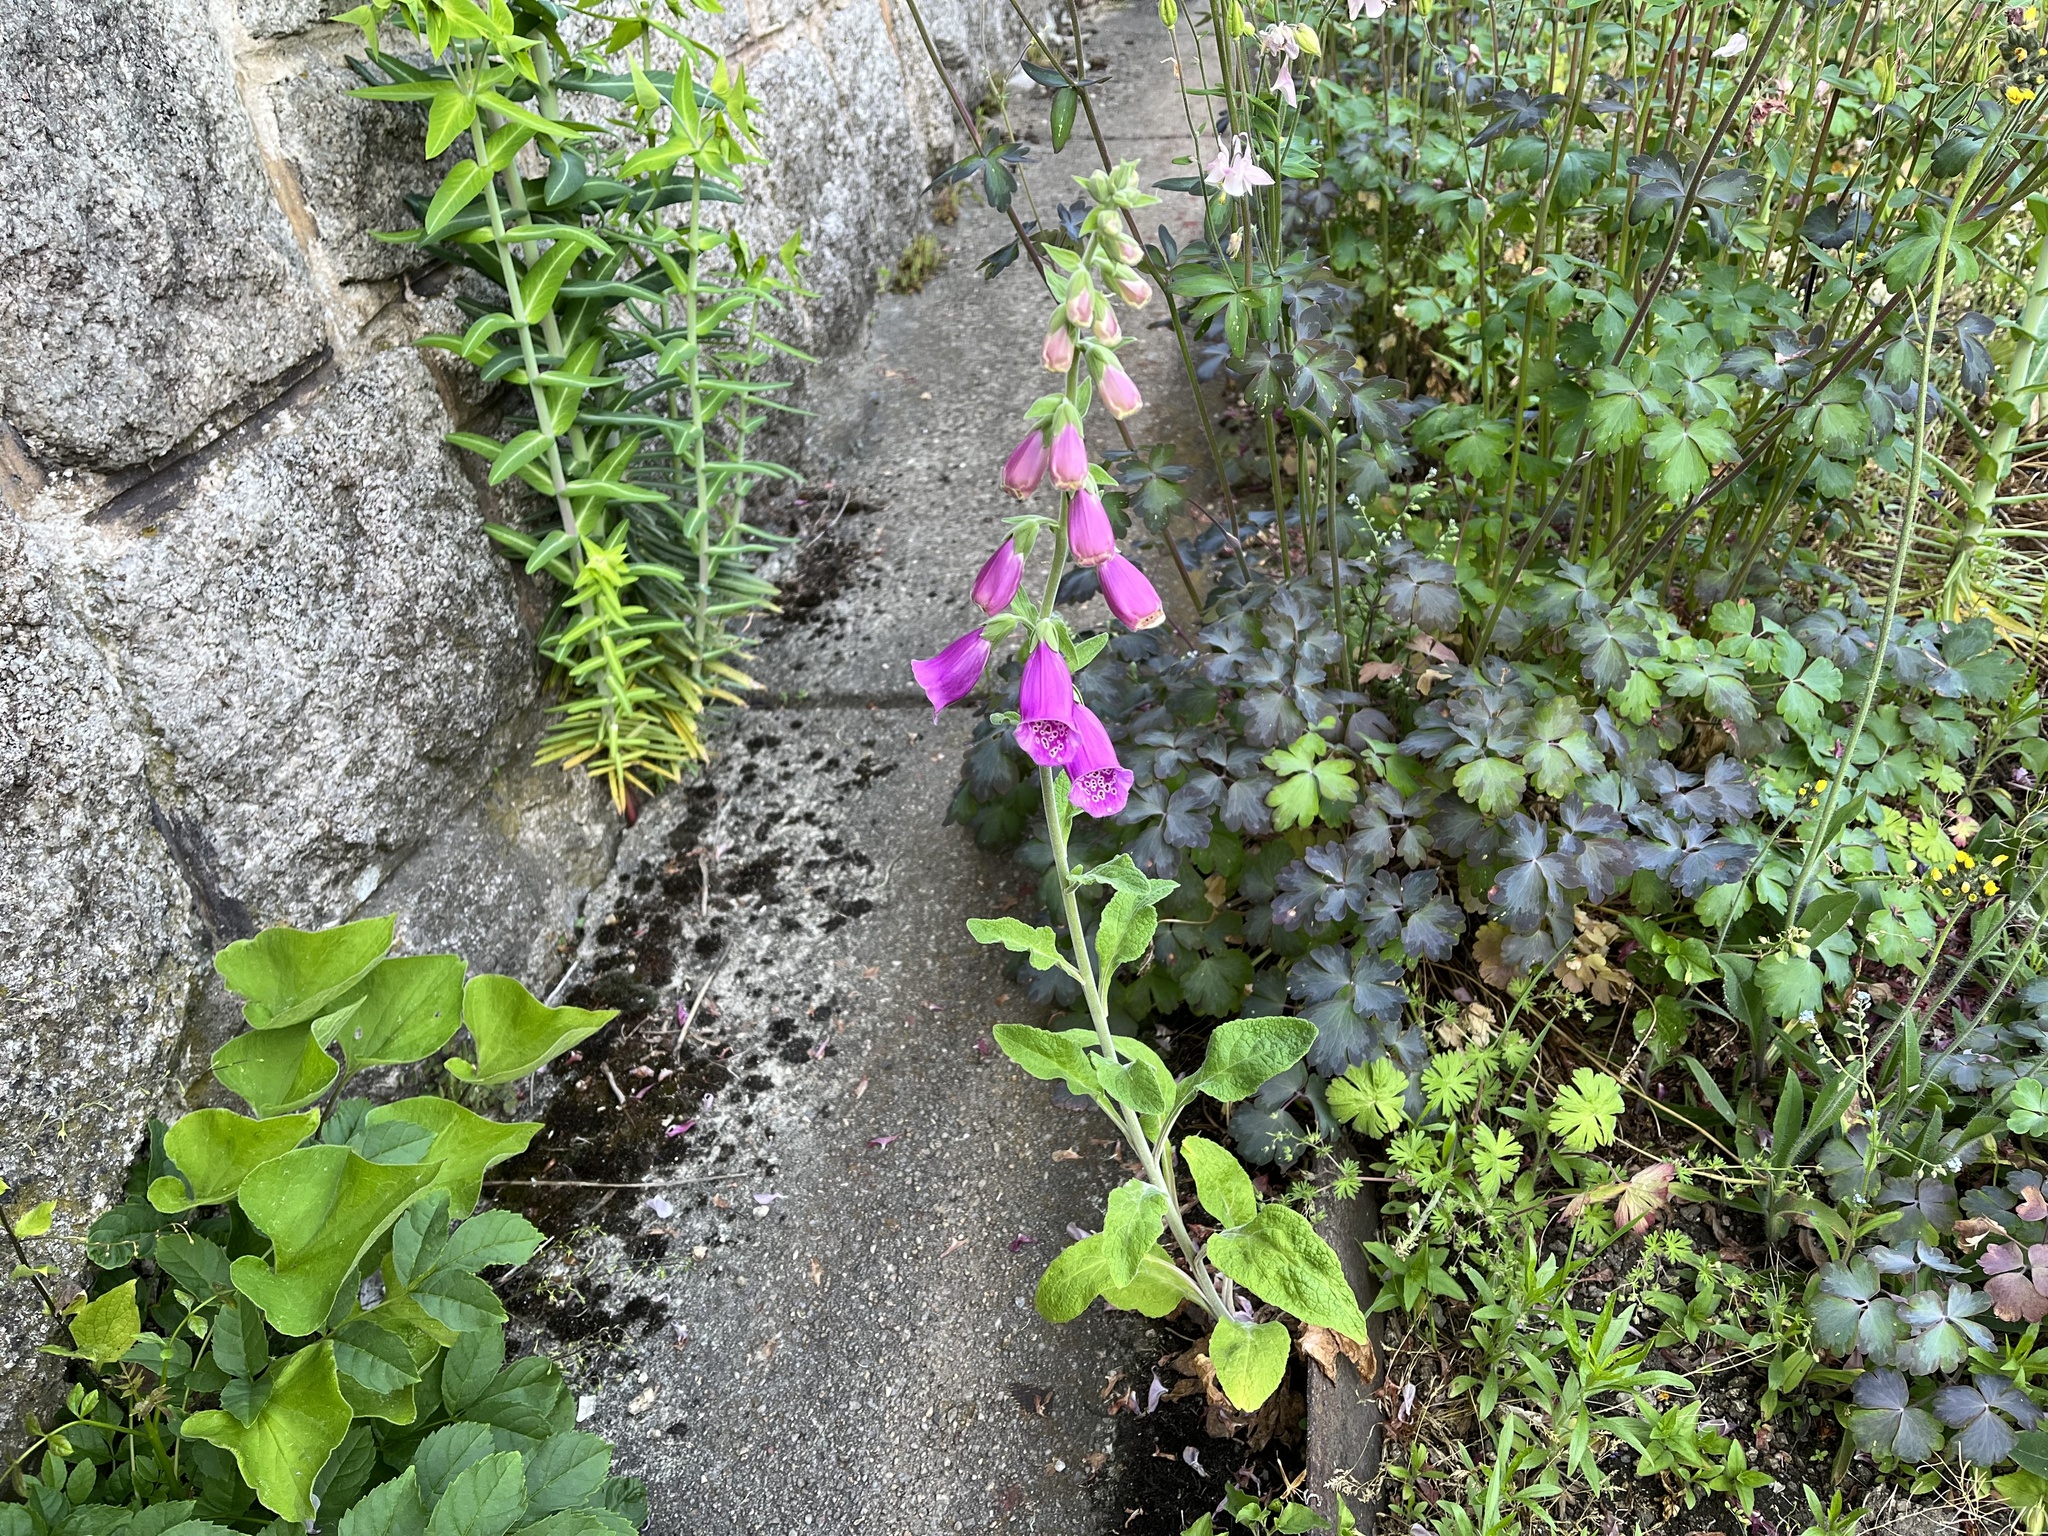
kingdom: Plantae
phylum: Tracheophyta
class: Magnoliopsida
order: Lamiales
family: Plantaginaceae
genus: Digitalis
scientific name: Digitalis purpurea
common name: Foxglove
